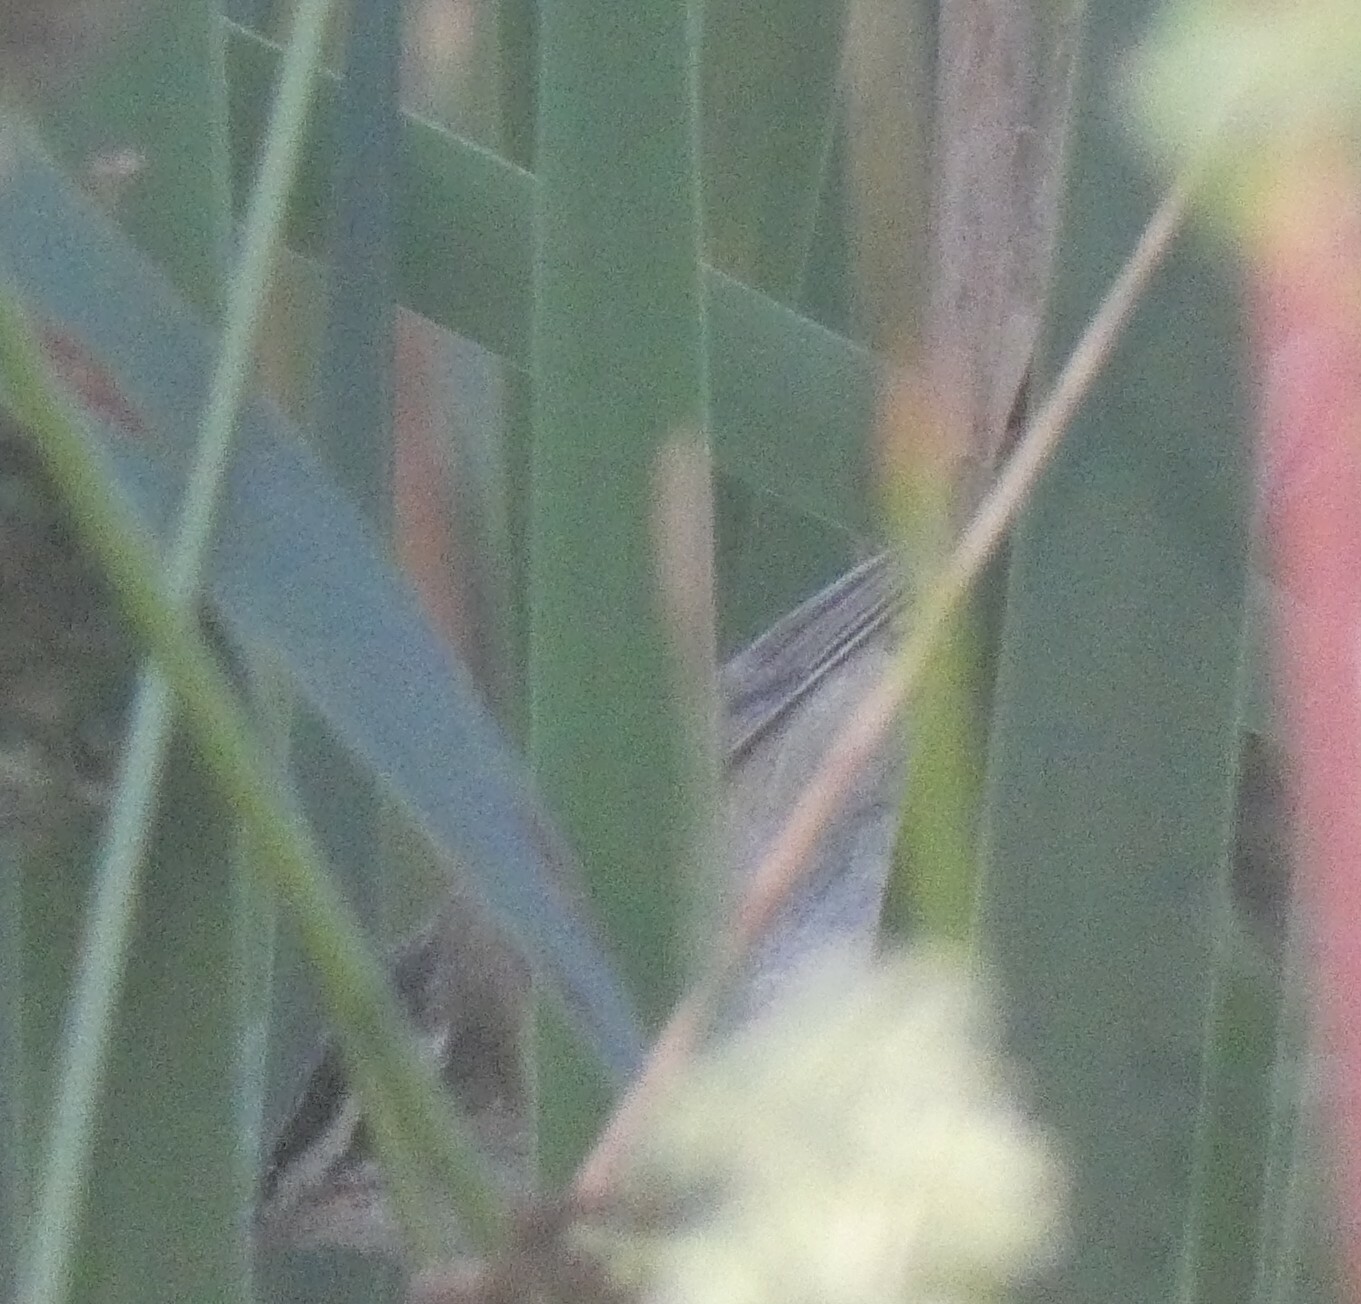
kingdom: Animalia
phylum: Chordata
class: Aves
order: Passeriformes
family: Acrocephalidae
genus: Acrocephalus
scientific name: Acrocephalus schoenobaenus
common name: Sedge warbler
